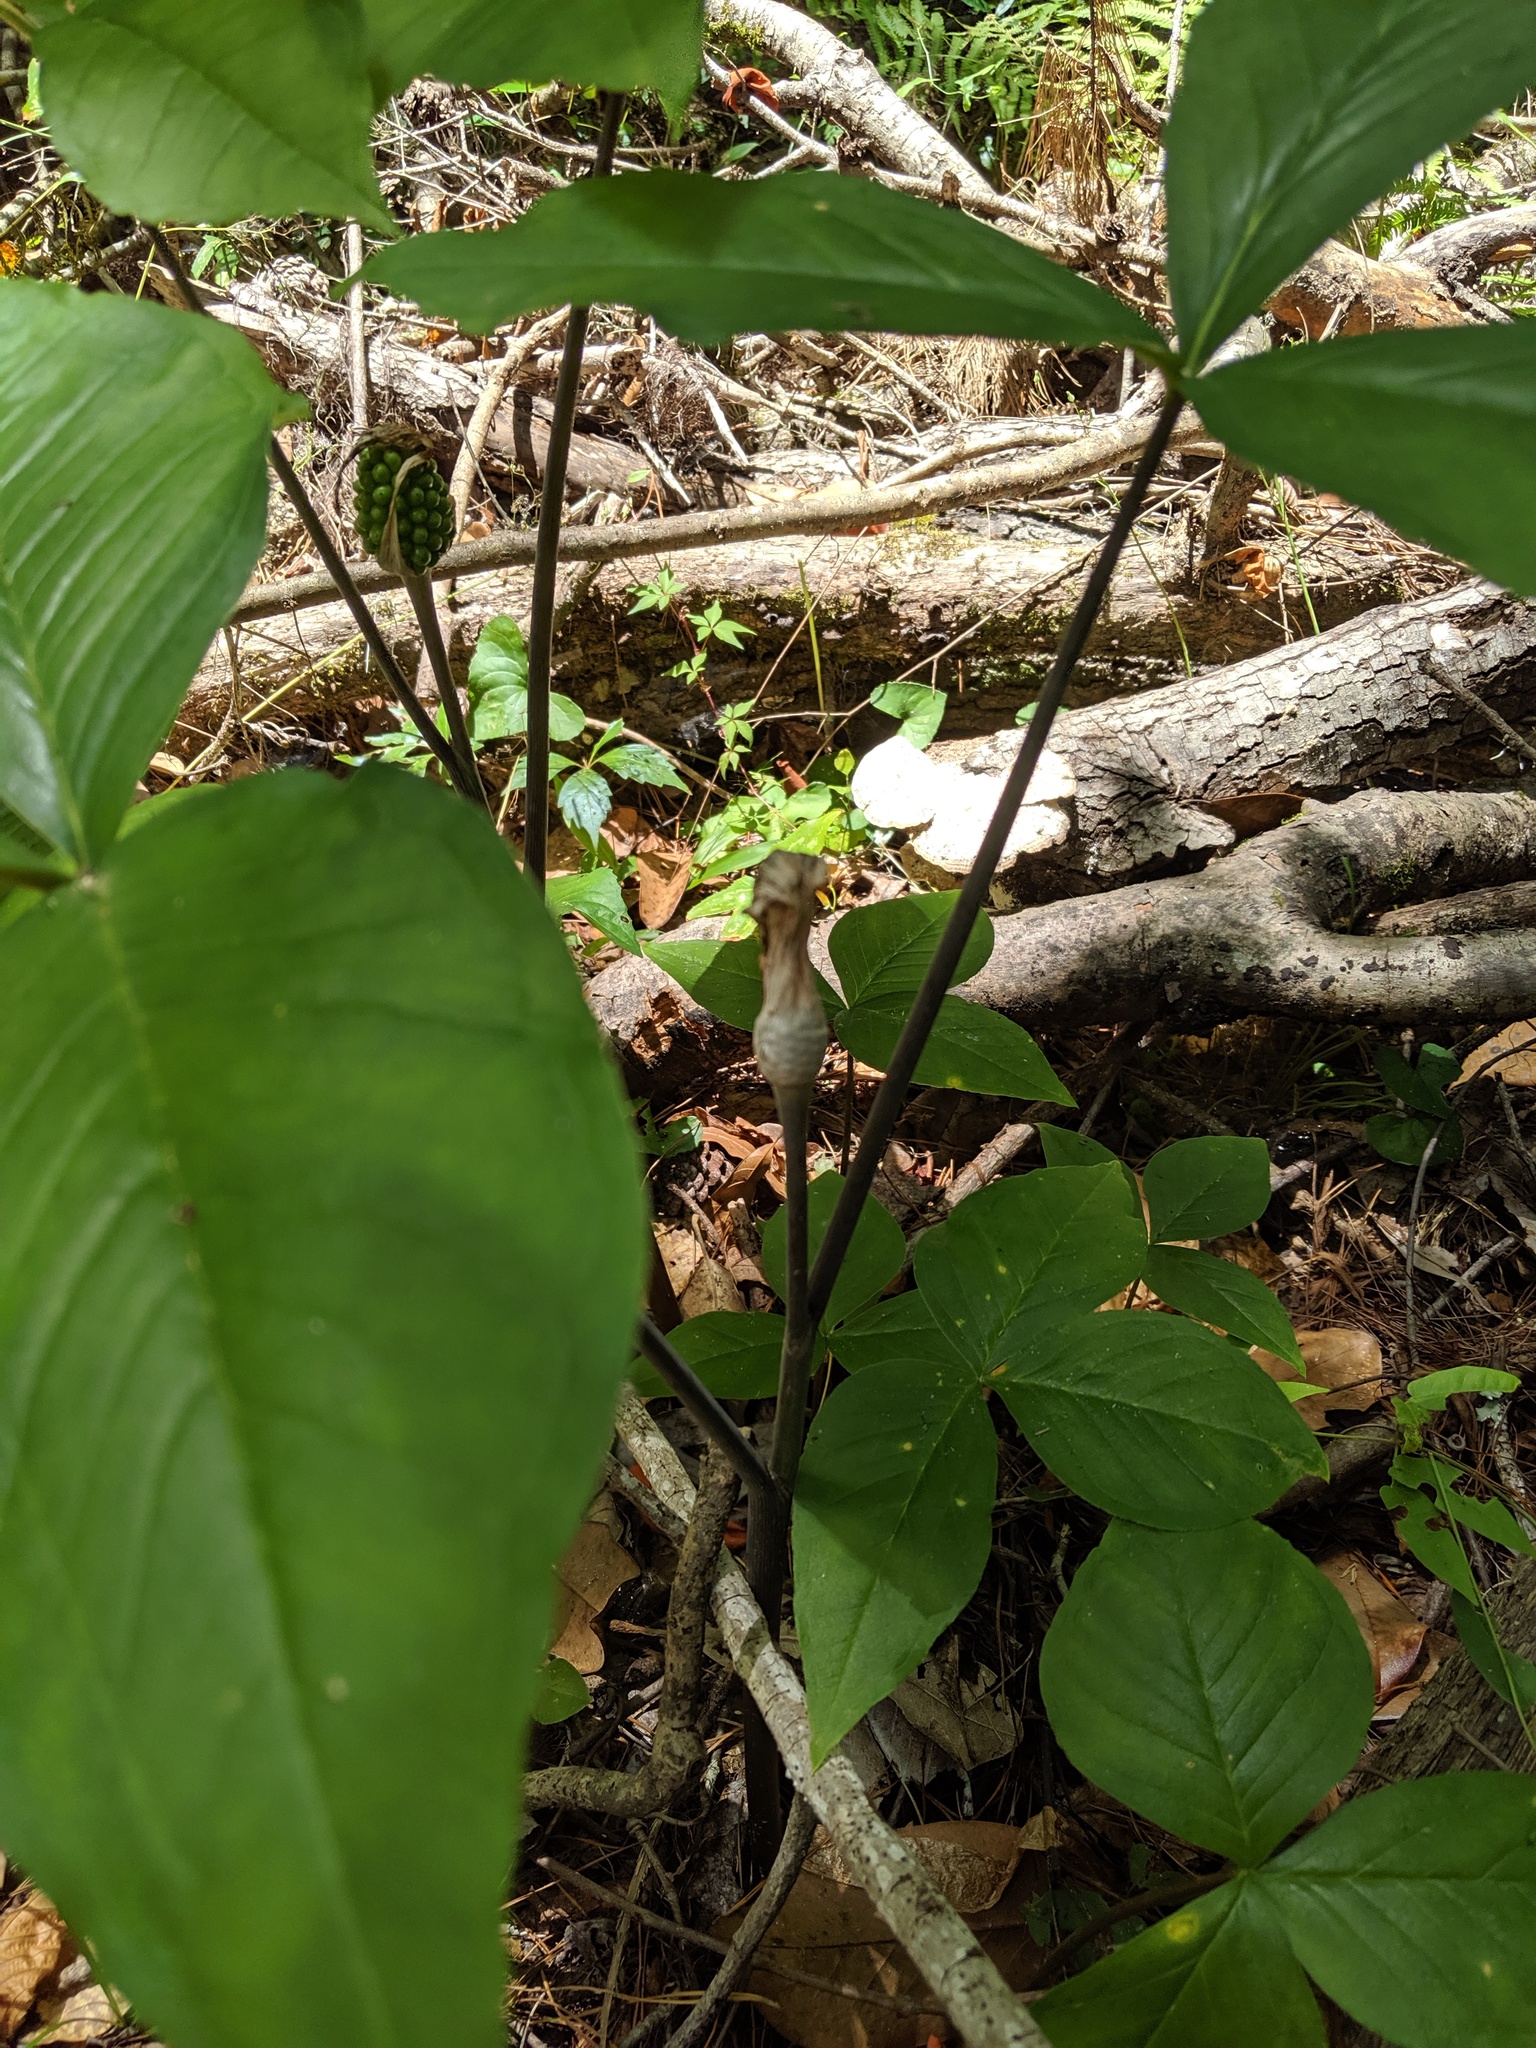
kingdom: Plantae
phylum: Tracheophyta
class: Liliopsida
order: Alismatales
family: Araceae
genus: Arisaema
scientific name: Arisaema acuminatum
